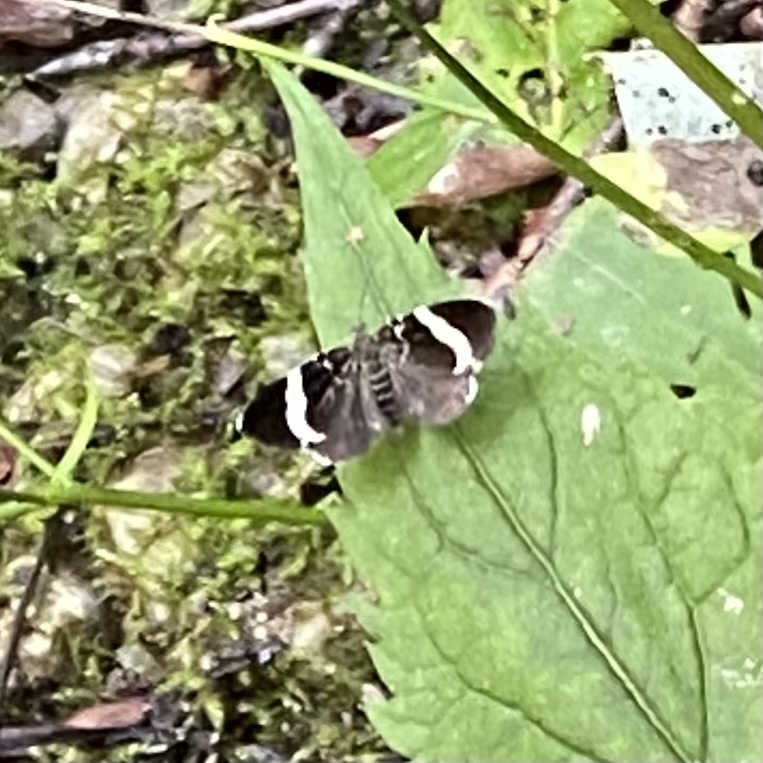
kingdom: Animalia
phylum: Arthropoda
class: Insecta
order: Lepidoptera
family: Geometridae
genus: Trichodezia
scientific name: Trichodezia albovittata
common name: White striped black
